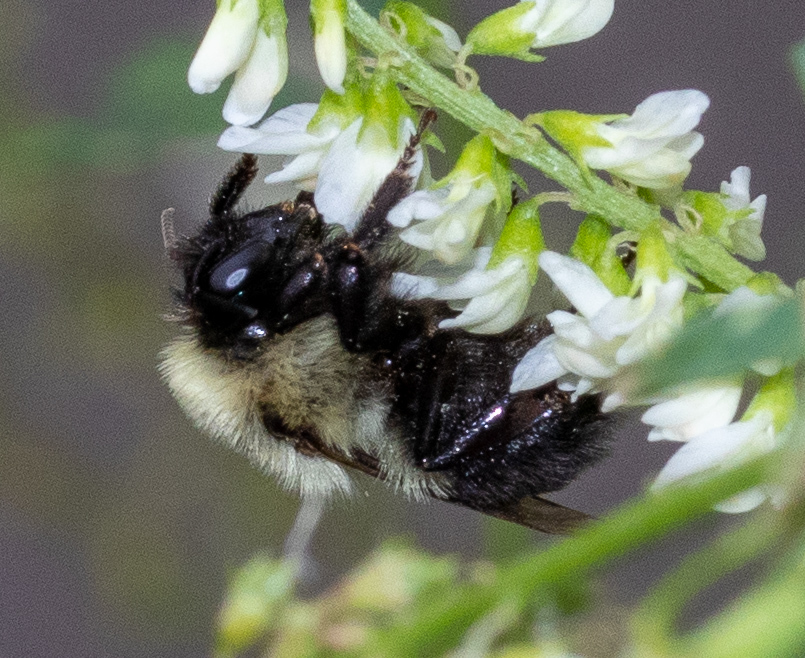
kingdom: Animalia
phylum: Arthropoda
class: Insecta
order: Hymenoptera
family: Apidae
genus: Bombus
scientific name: Bombus impatiens
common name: Common eastern bumble bee
